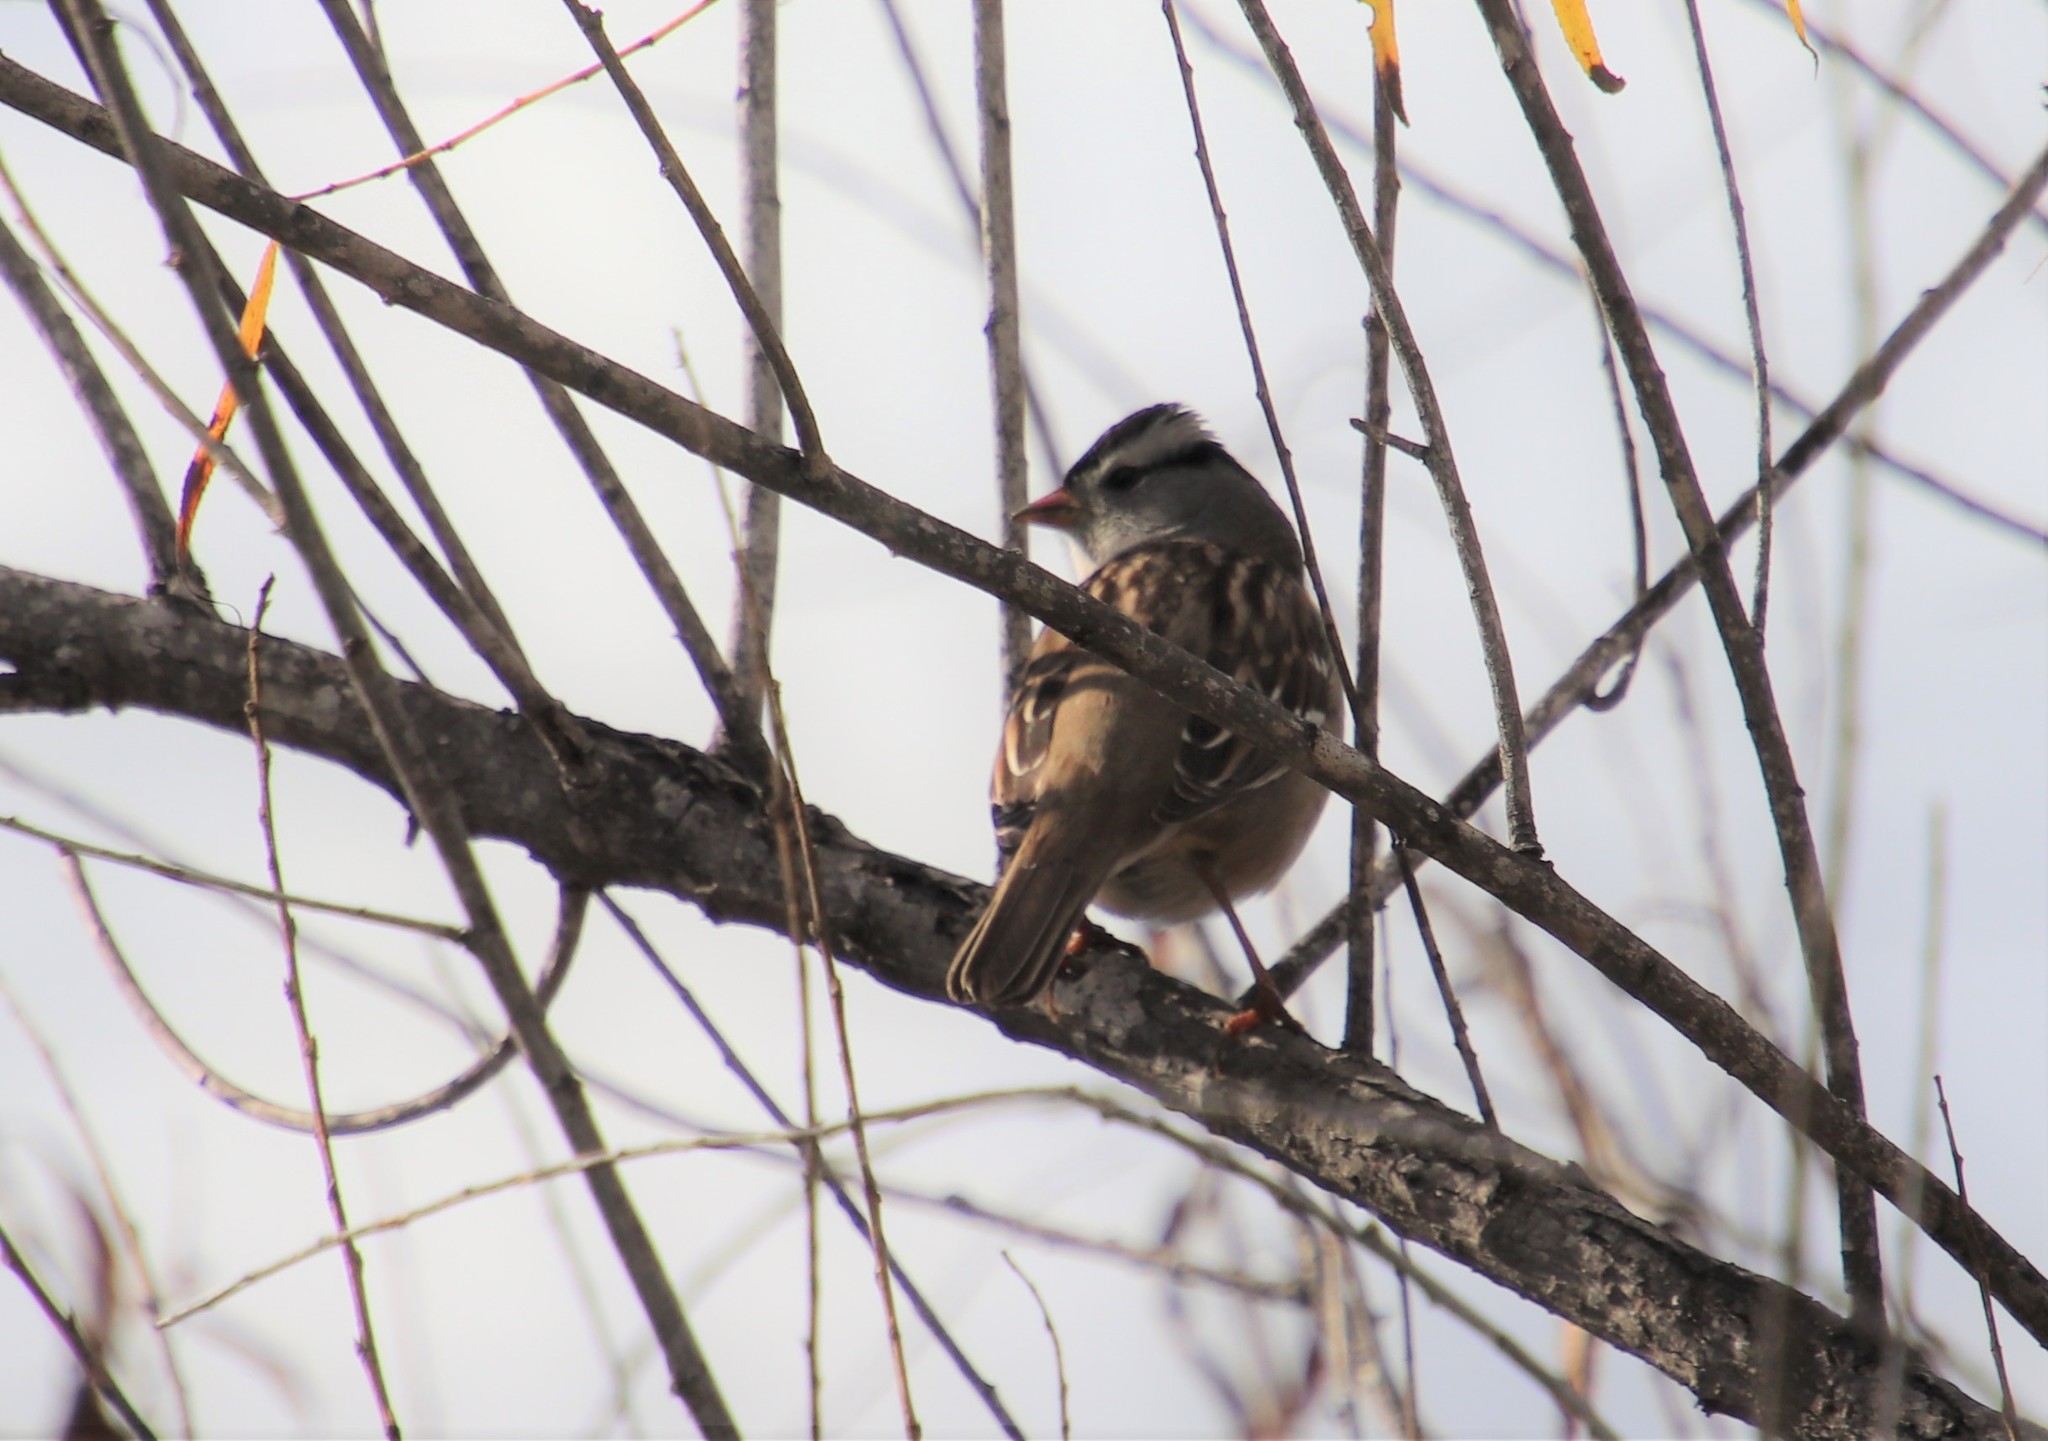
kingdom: Animalia
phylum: Chordata
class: Aves
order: Passeriformes
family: Passerellidae
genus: Zonotrichia
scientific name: Zonotrichia leucophrys
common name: White-crowned sparrow
